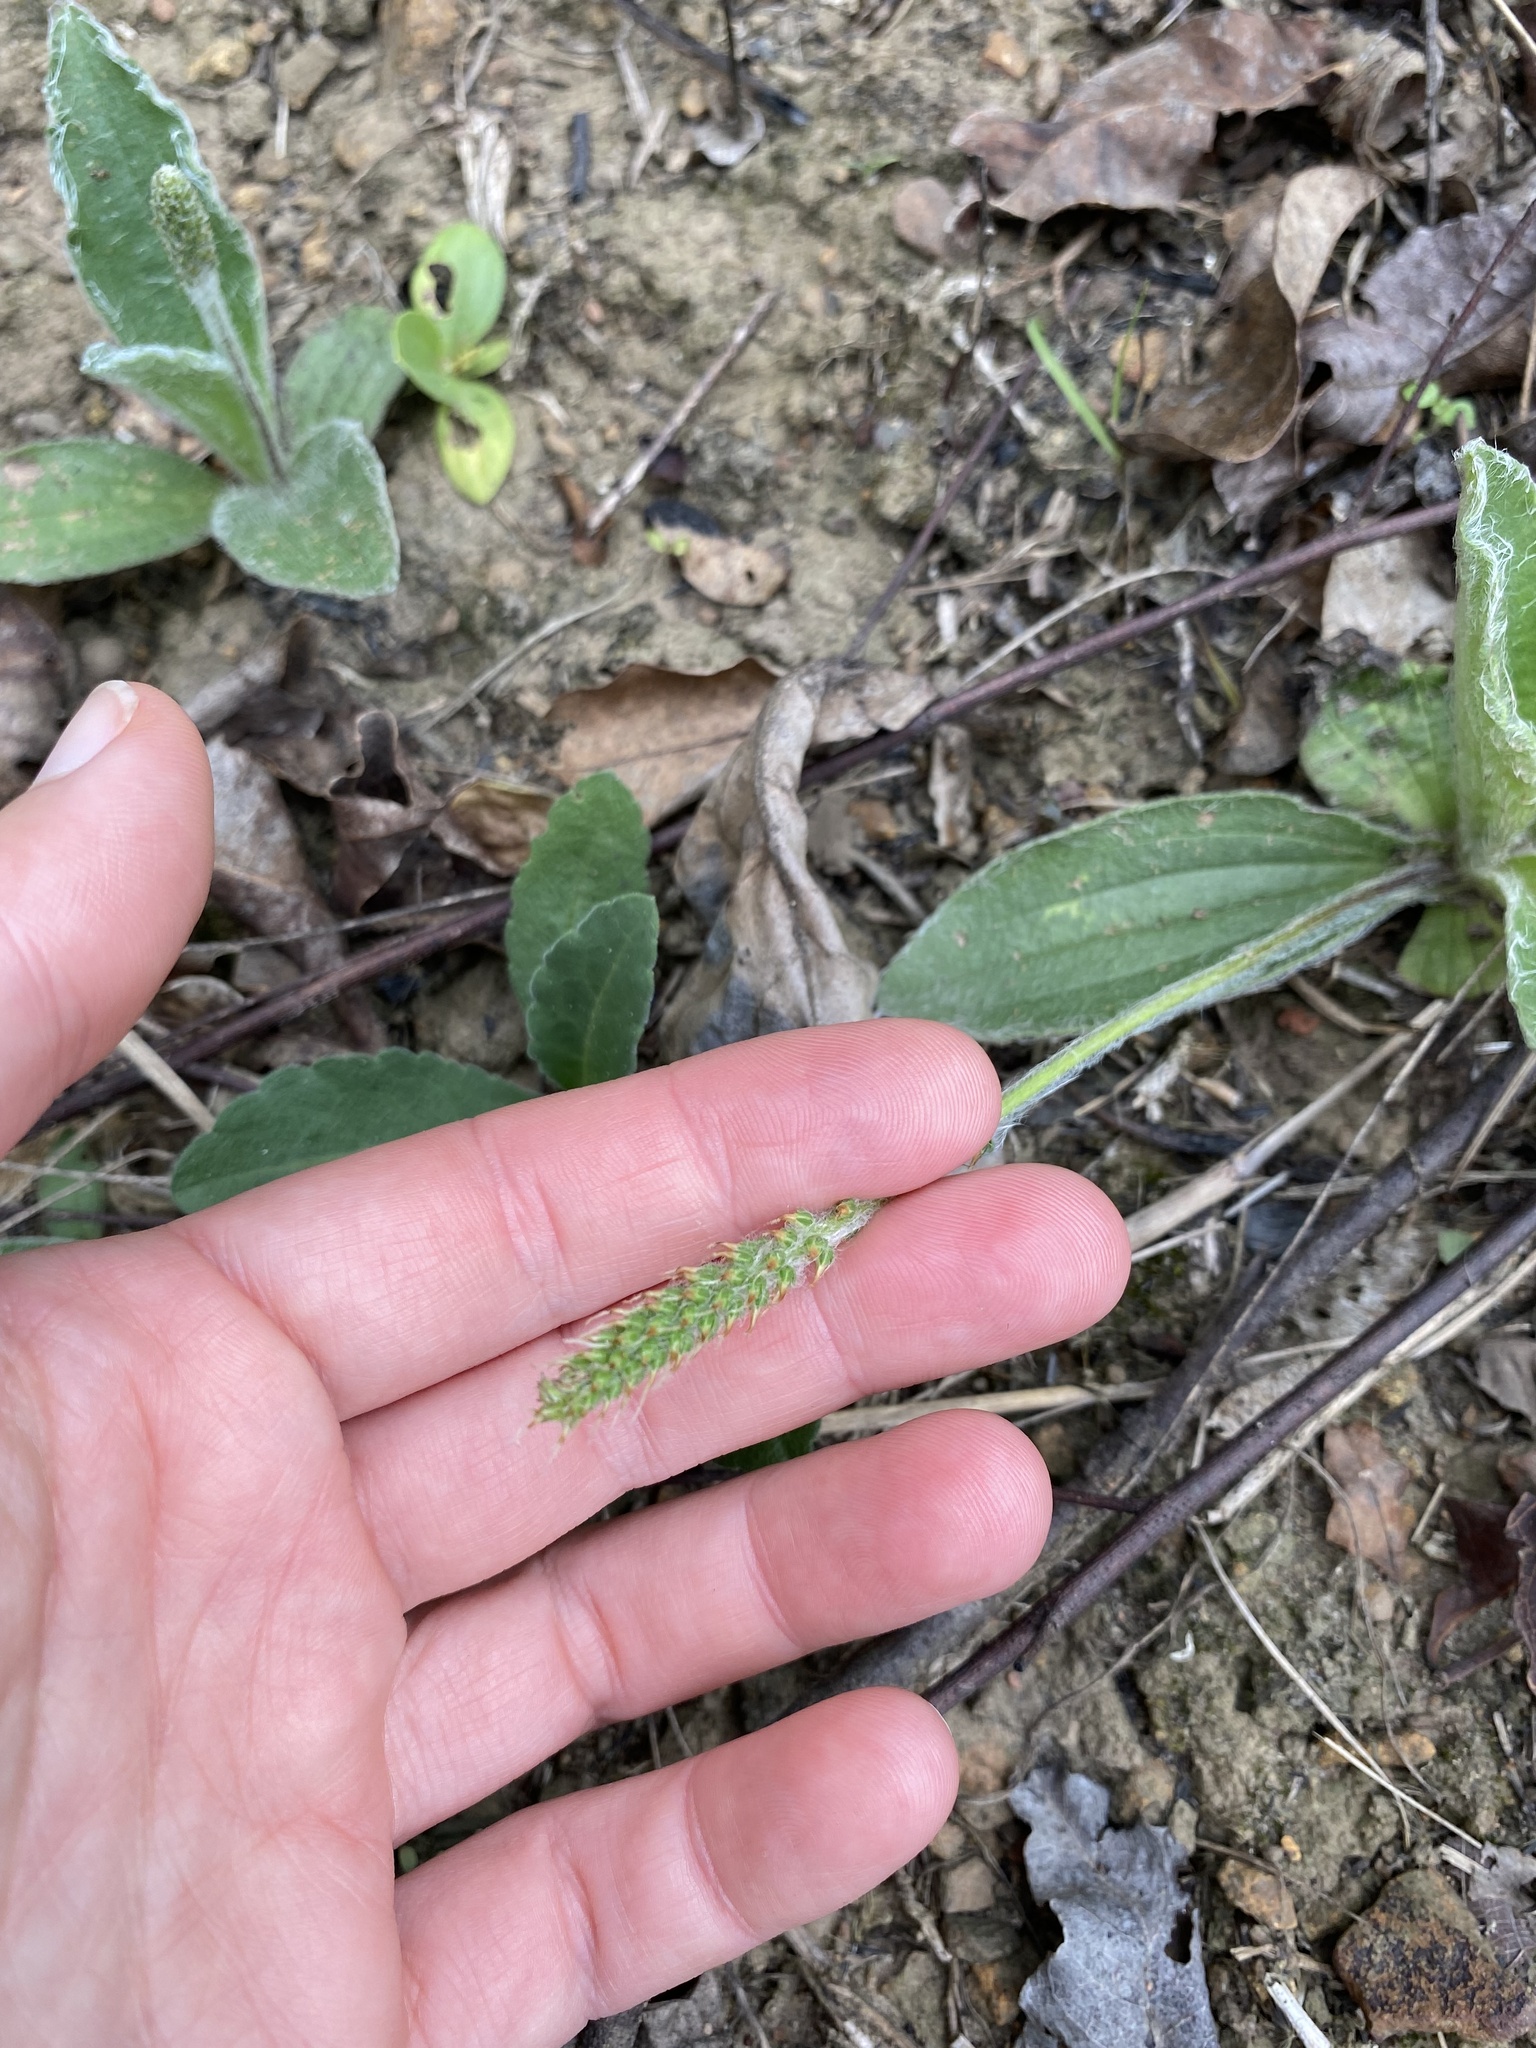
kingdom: Plantae
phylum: Tracheophyta
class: Magnoliopsida
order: Lamiales
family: Plantaginaceae
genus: Plantago
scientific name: Plantago tomentosa
